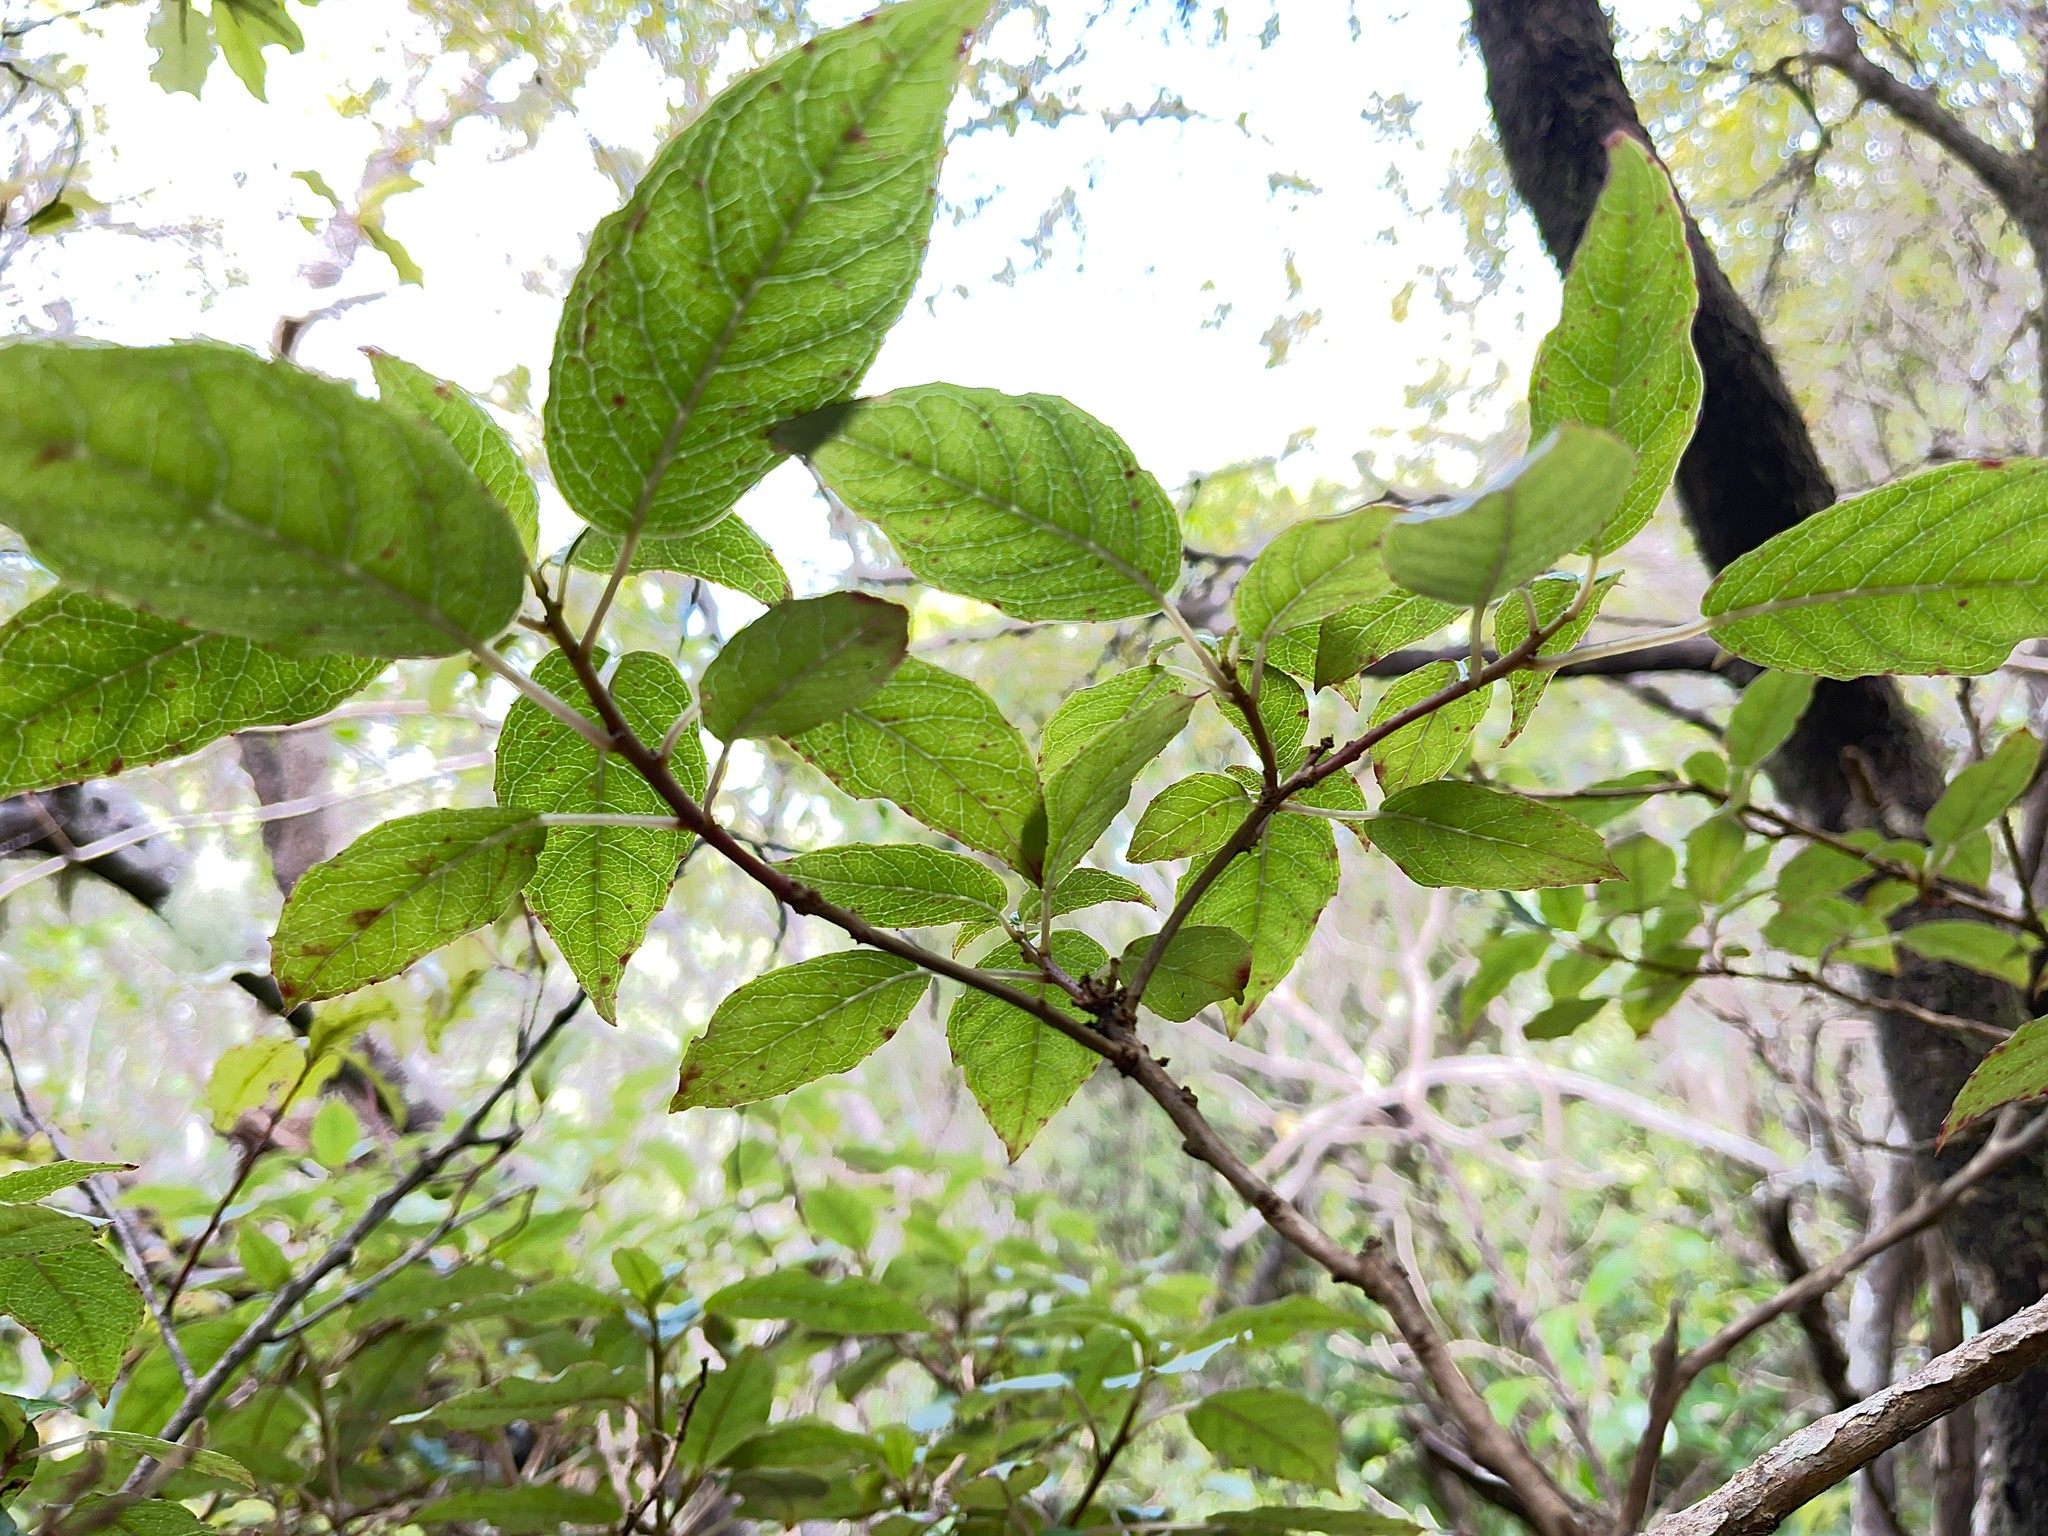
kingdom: Plantae
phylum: Tracheophyta
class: Magnoliopsida
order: Myrtales
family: Onagraceae
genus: Fuchsia
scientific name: Fuchsia excorticata
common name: Tree fuchsia
